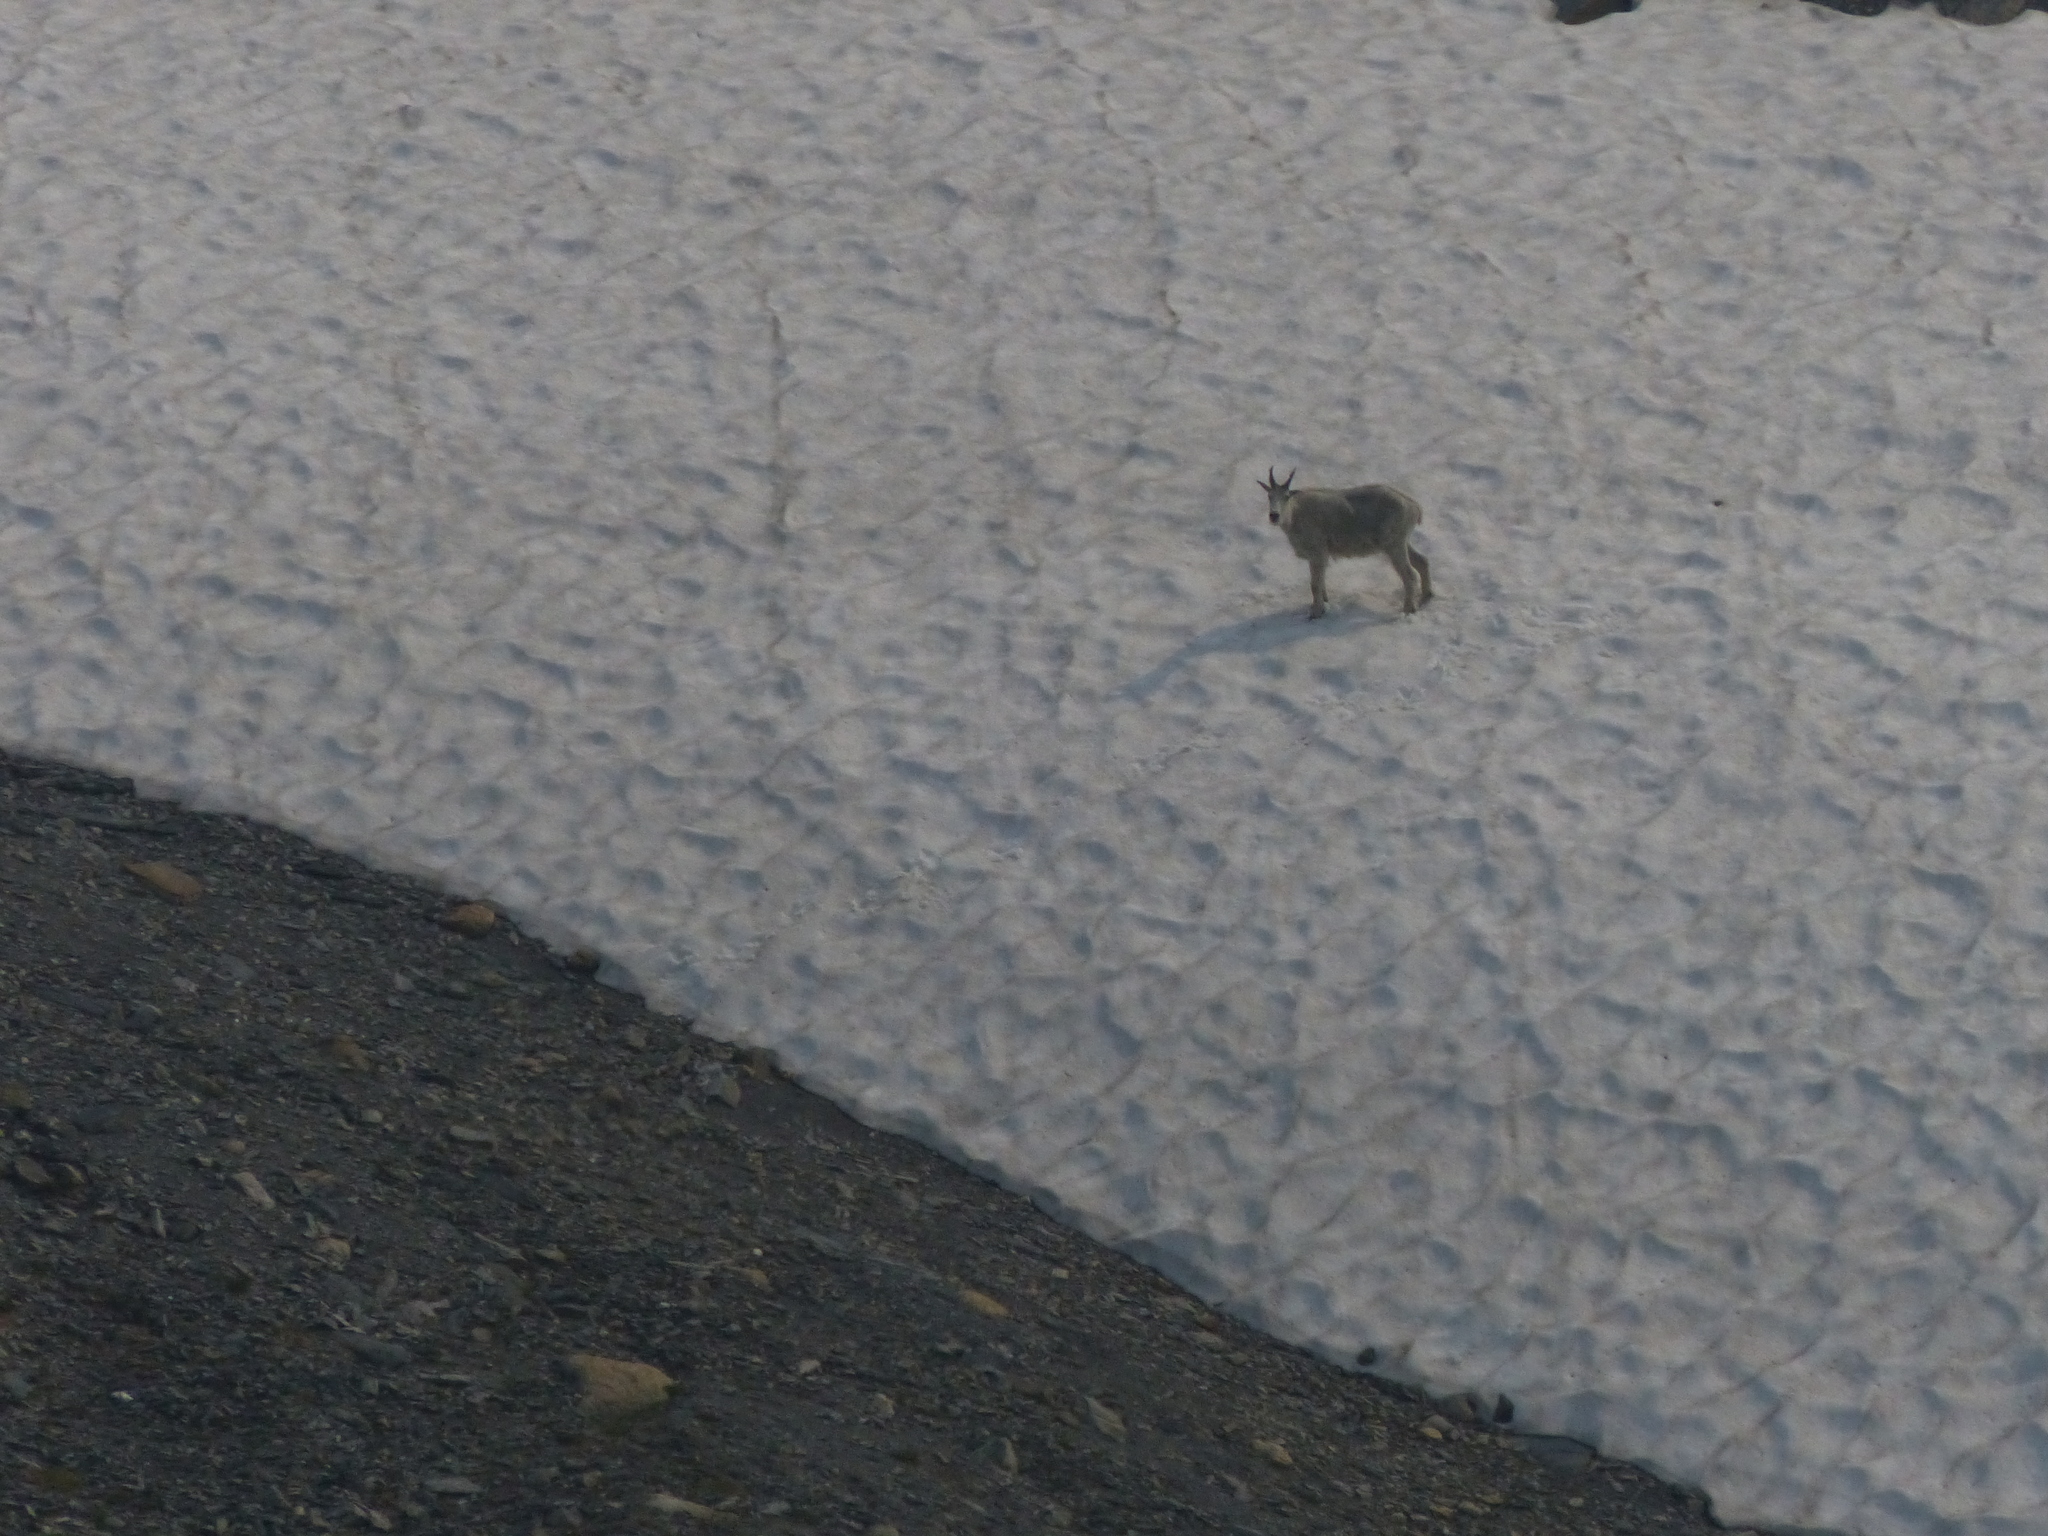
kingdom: Animalia
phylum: Chordata
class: Mammalia
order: Artiodactyla
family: Bovidae
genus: Oreamnos
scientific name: Oreamnos americanus
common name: Mountain goat
